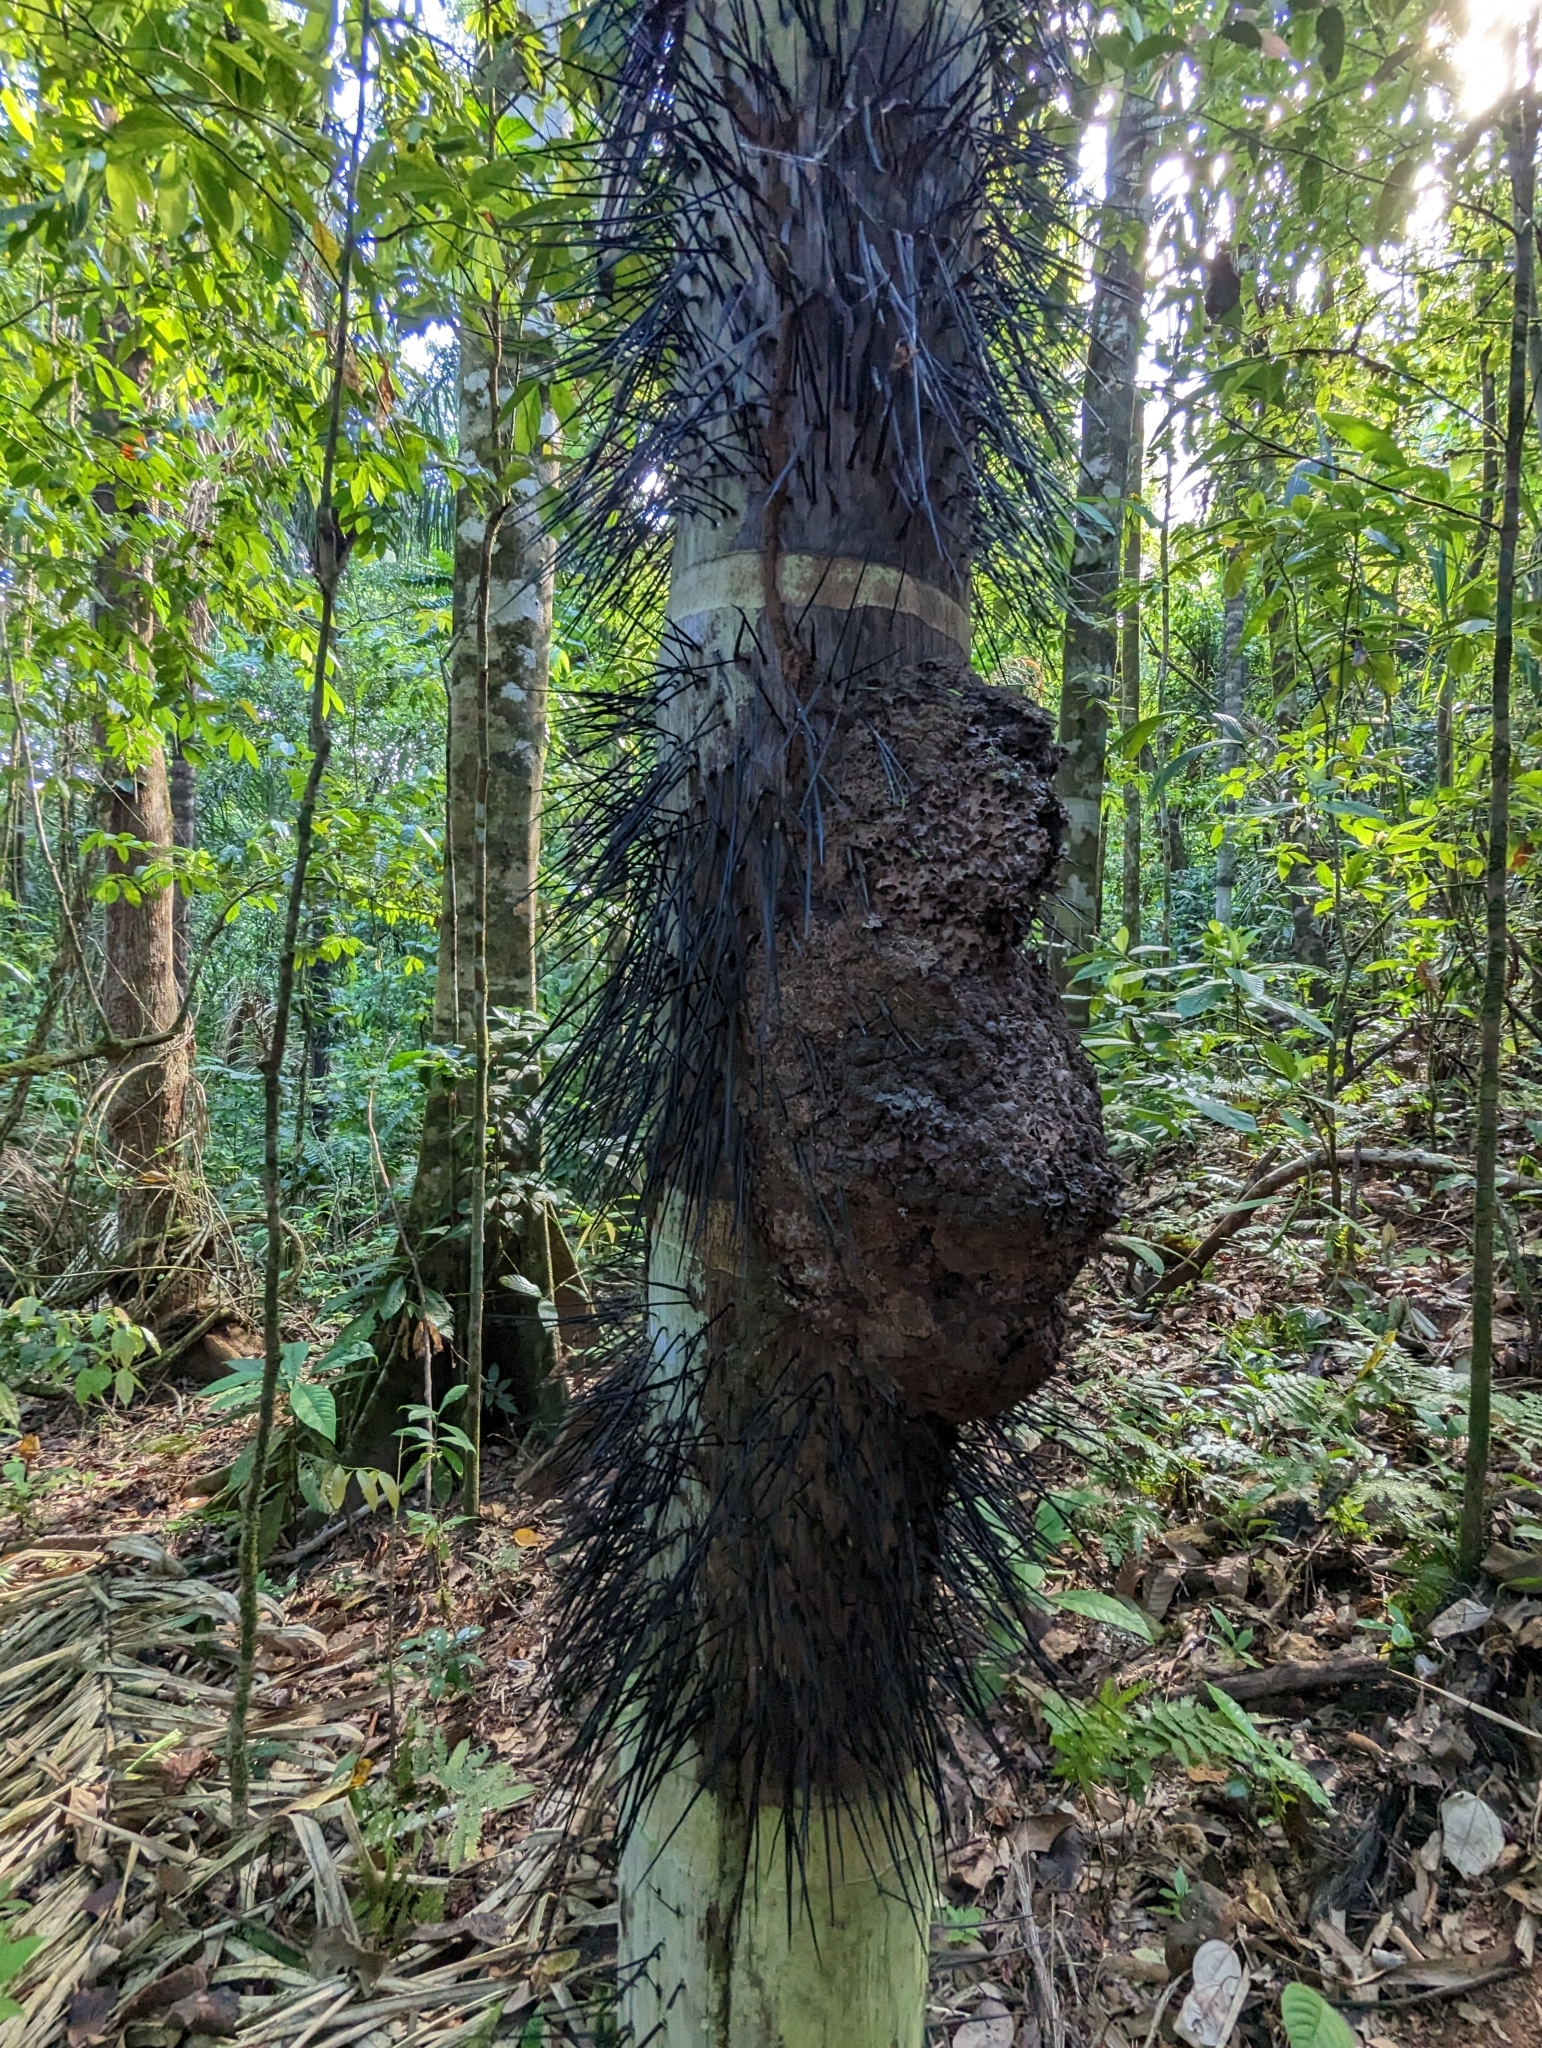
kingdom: Plantae
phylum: Tracheophyta
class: Liliopsida
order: Arecales
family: Arecaceae
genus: Acrocomia
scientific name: Acrocomia aculeata
